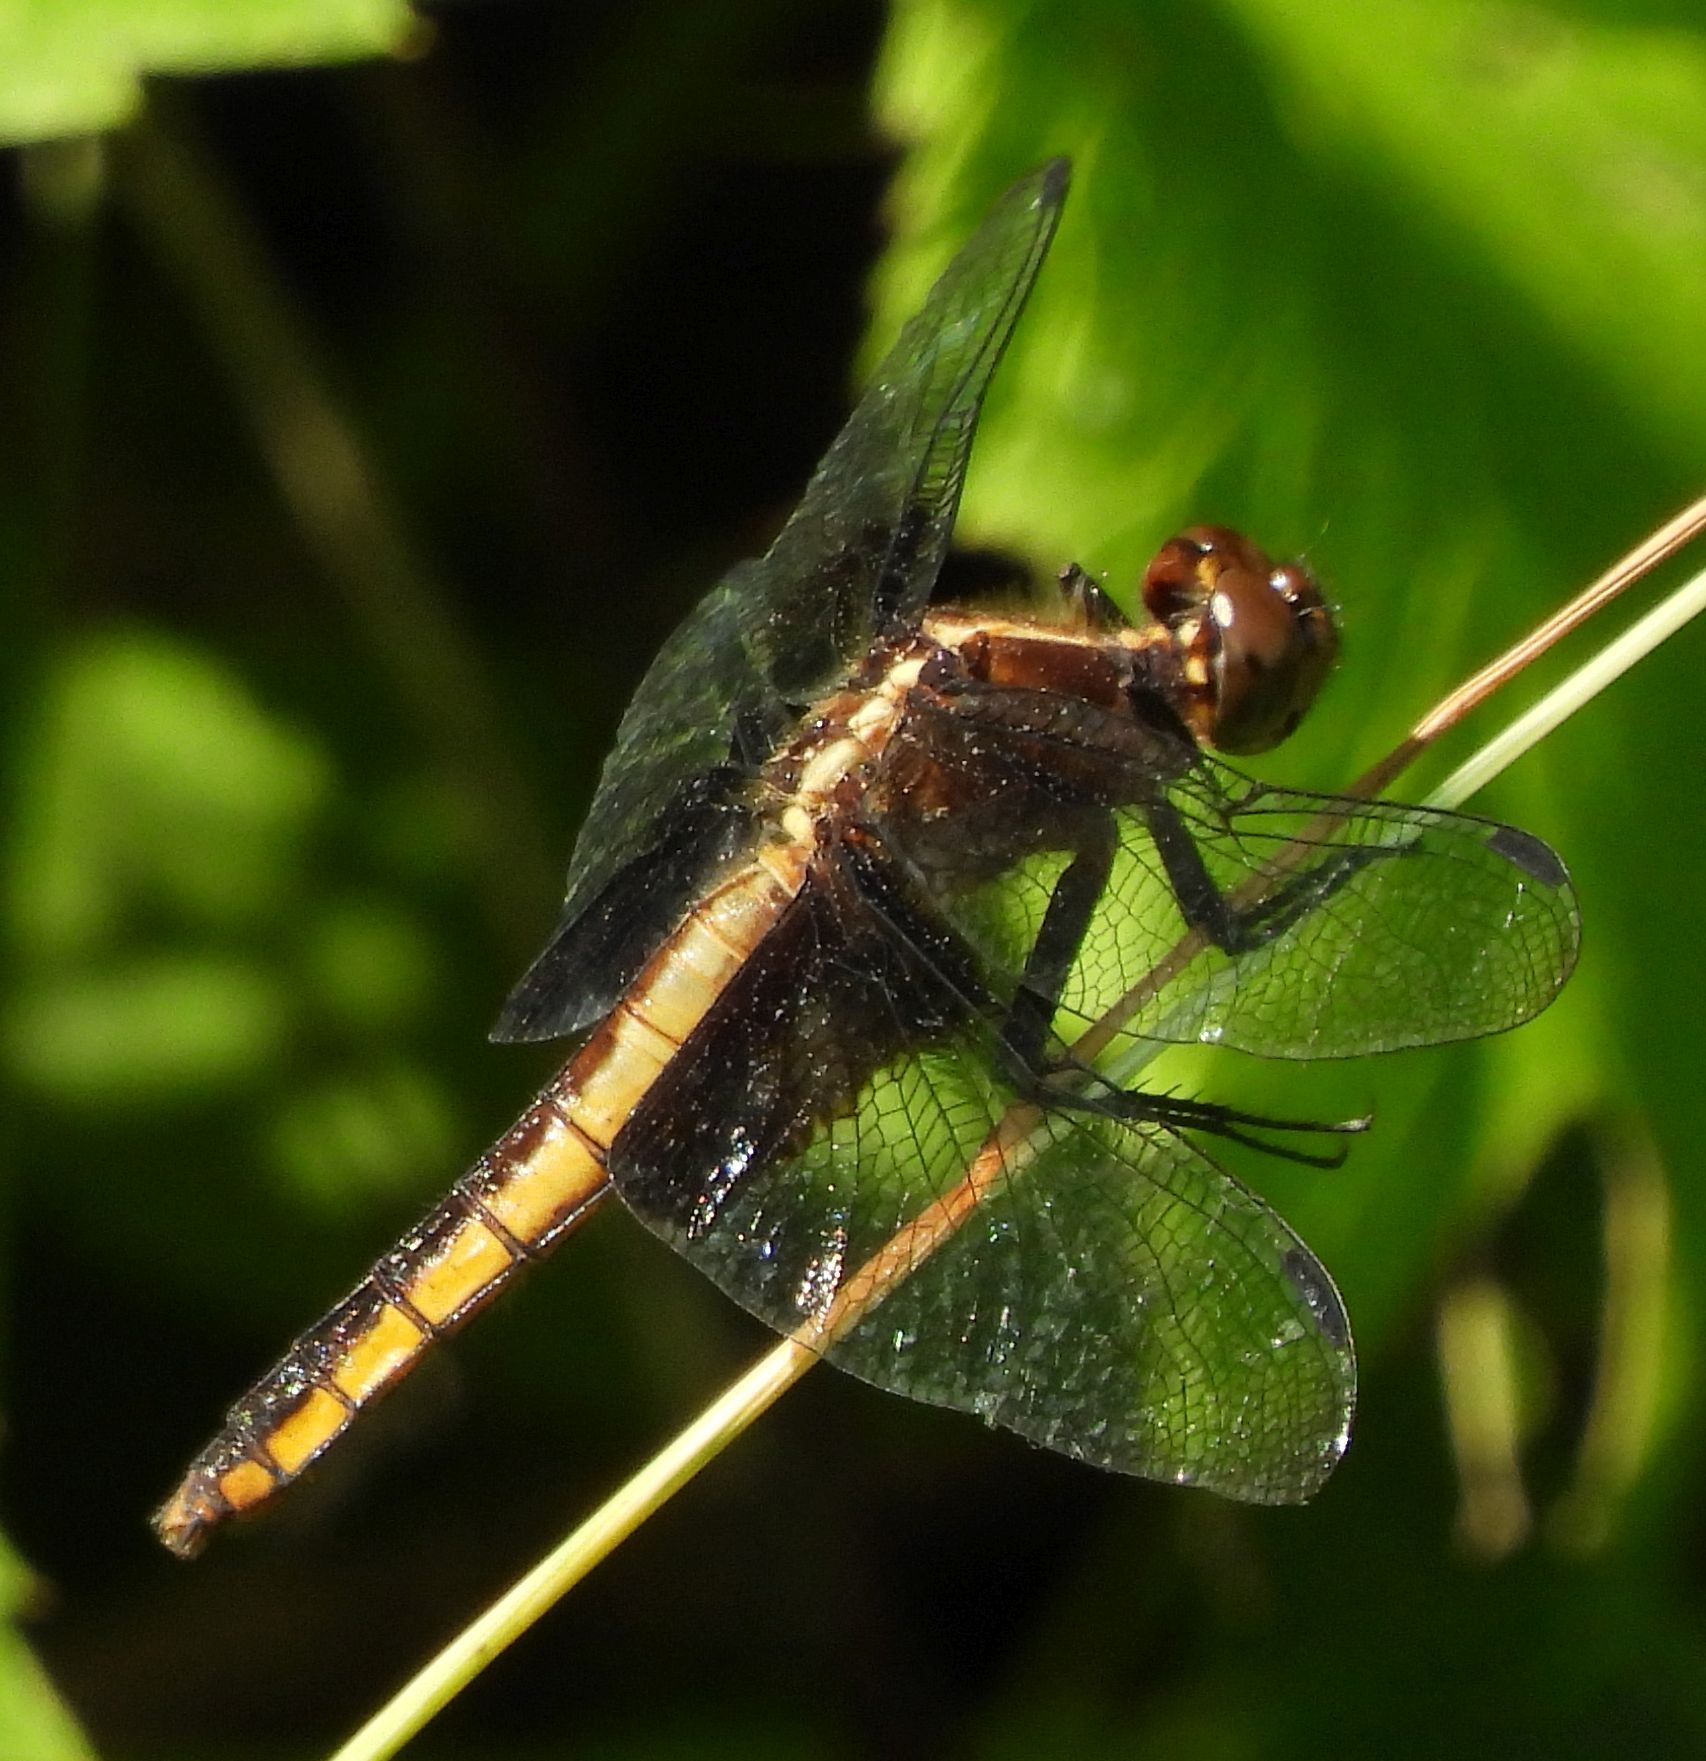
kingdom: Animalia
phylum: Arthropoda
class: Insecta
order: Odonata
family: Libellulidae
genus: Libellula
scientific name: Libellula luctuosa
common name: Widow skimmer
